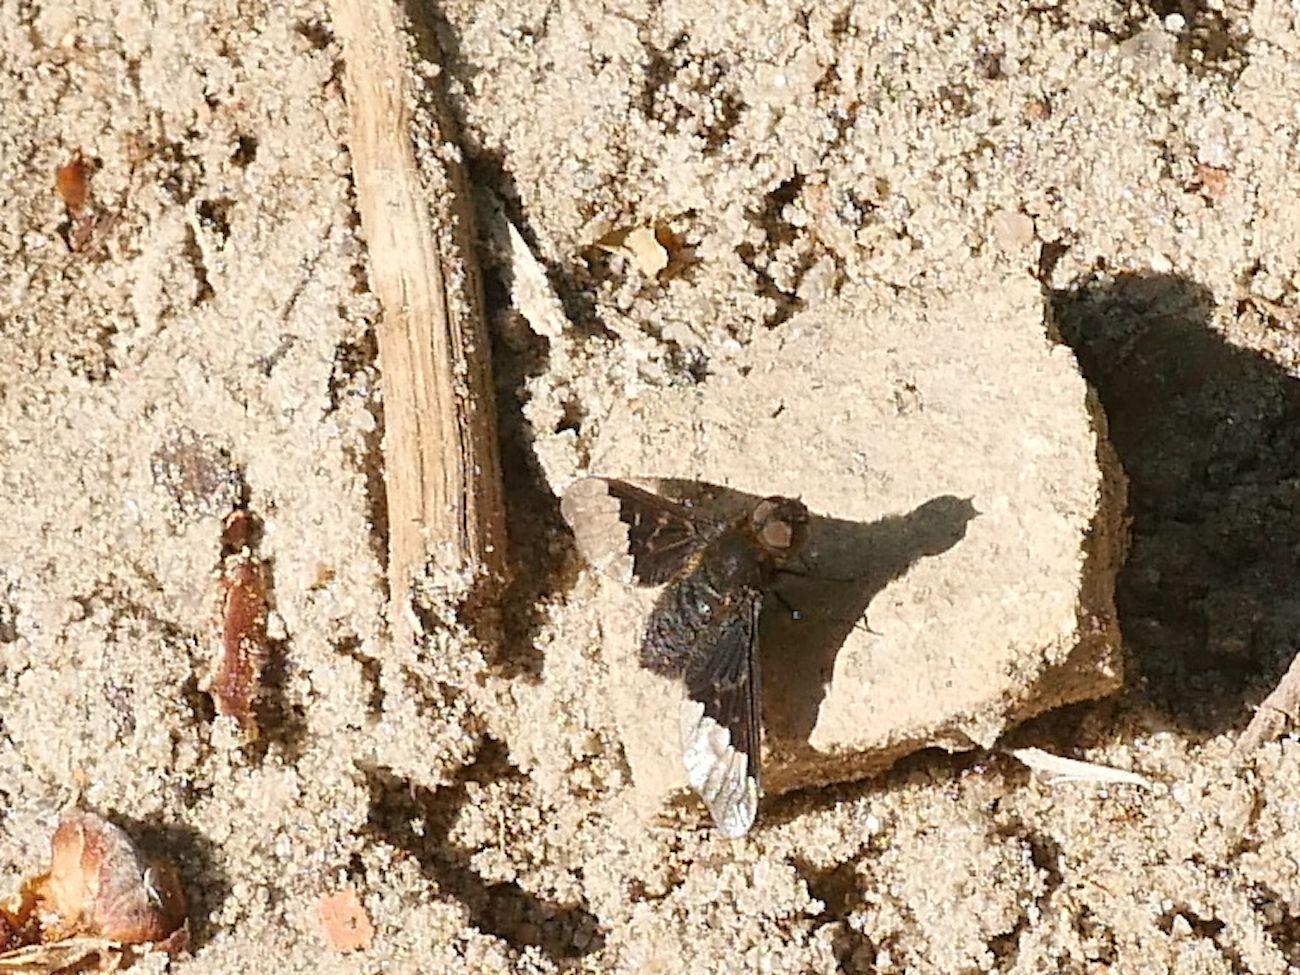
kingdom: Animalia
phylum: Arthropoda
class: Insecta
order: Diptera
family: Bombyliidae
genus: Hemipenthes
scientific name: Hemipenthes morio
